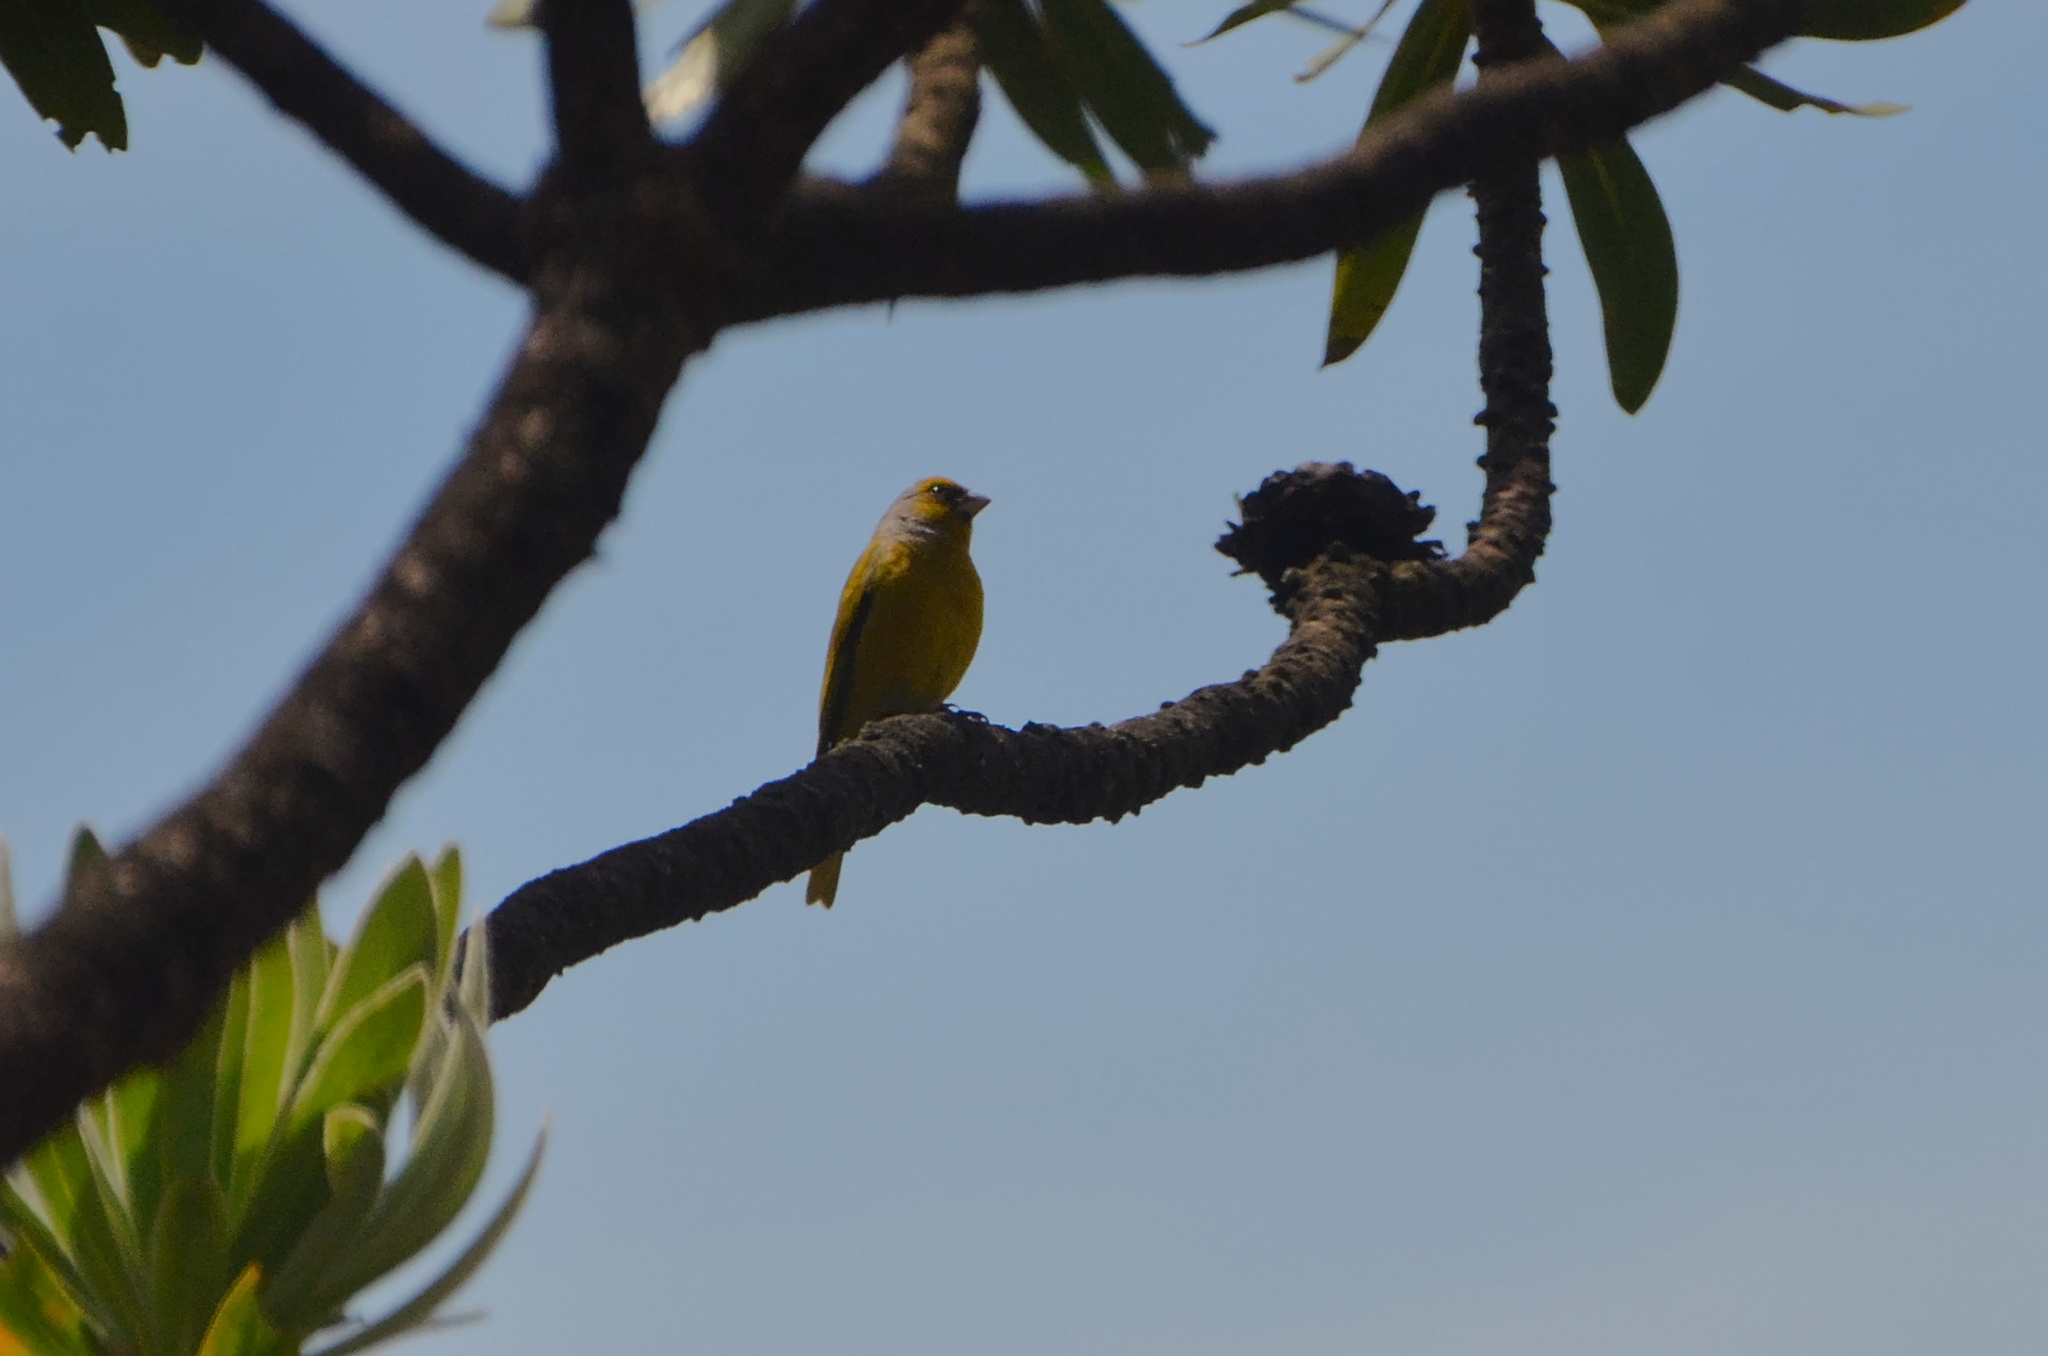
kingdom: Animalia
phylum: Chordata
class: Aves
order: Passeriformes
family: Fringillidae
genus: Serinus
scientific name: Serinus canicollis
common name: Cape canary
